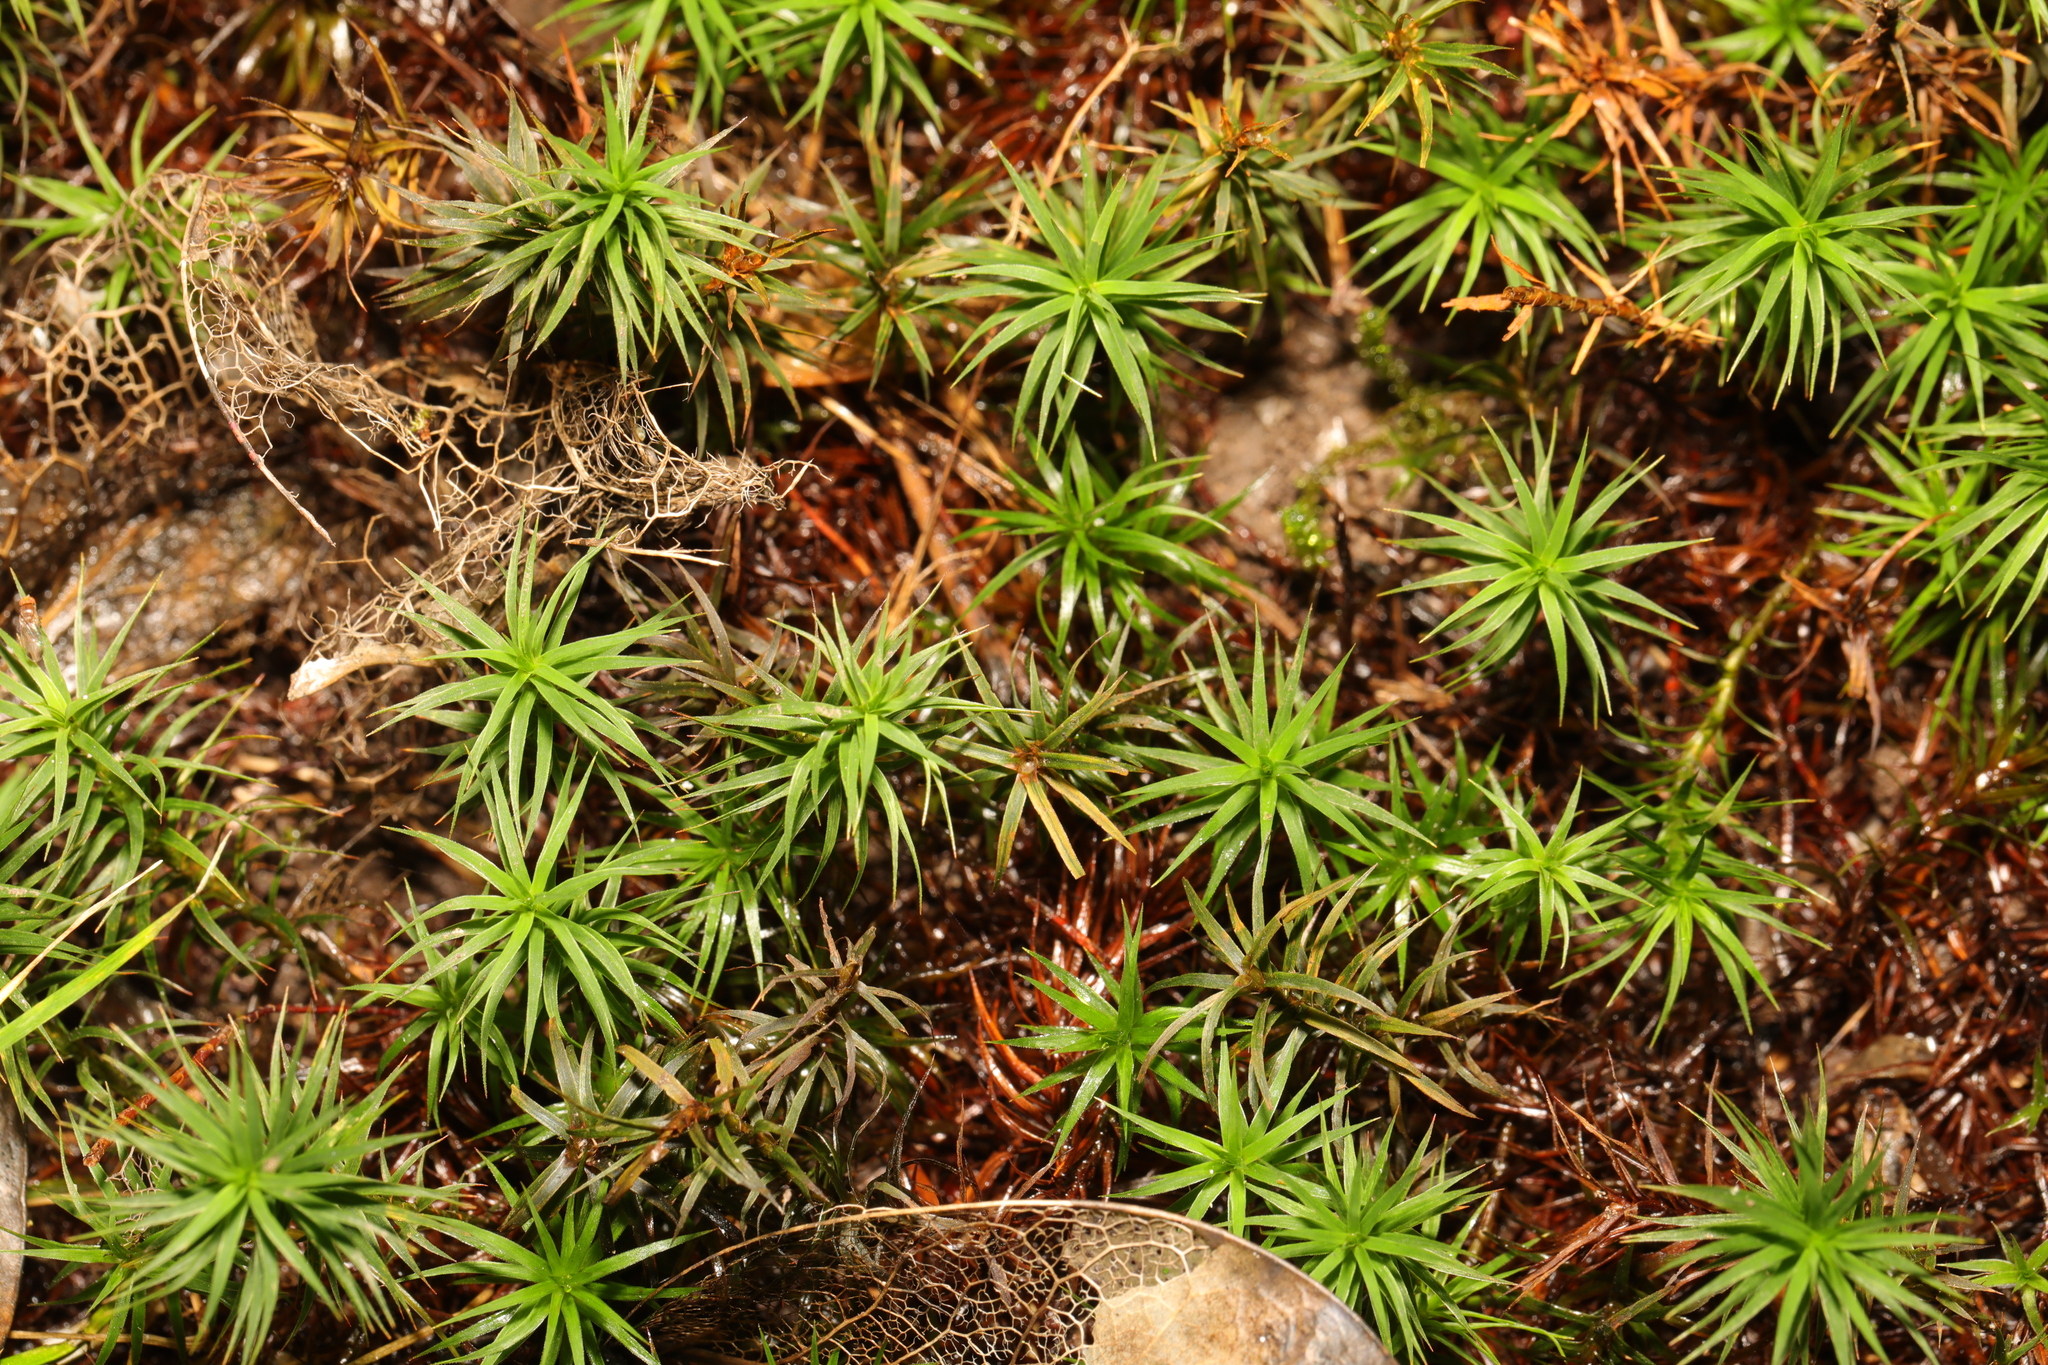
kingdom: Plantae
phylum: Bryophyta
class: Polytrichopsida
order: Polytrichales
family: Polytrichaceae
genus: Polytrichum
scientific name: Polytrichum formosum
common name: Bank haircap moss
